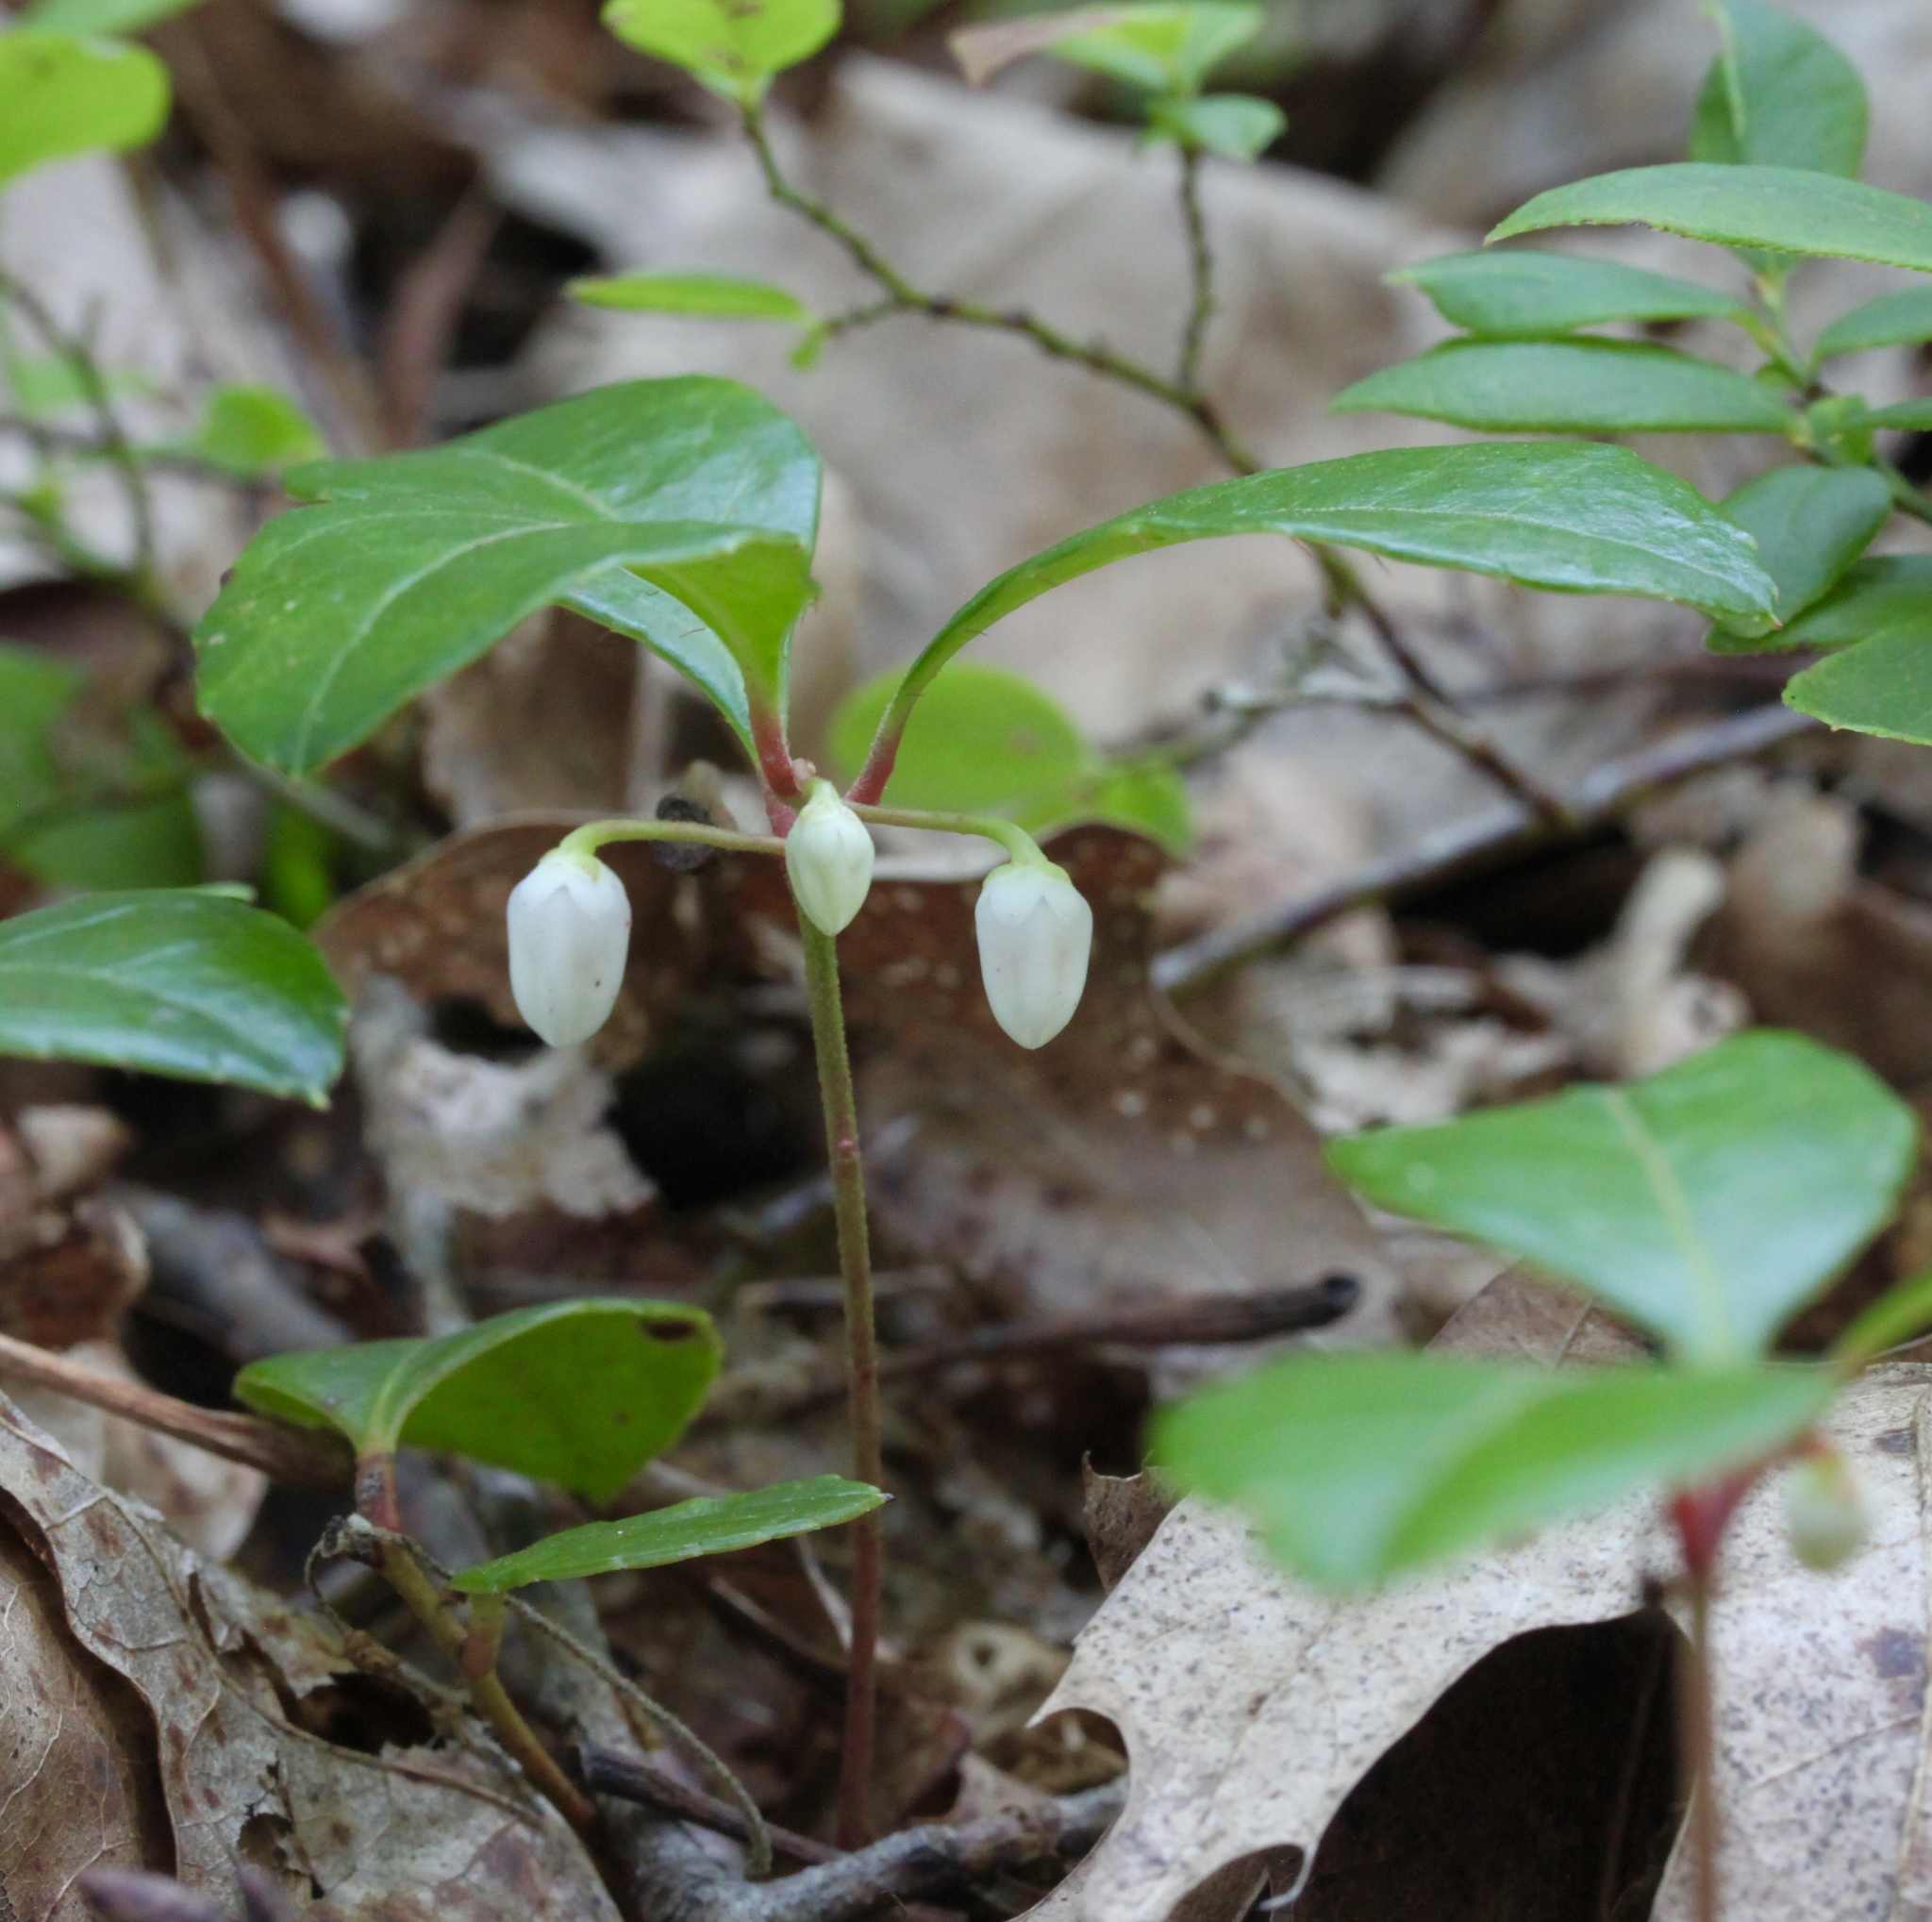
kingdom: Plantae
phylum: Tracheophyta
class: Magnoliopsida
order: Ericales
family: Ericaceae
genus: Gaultheria
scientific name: Gaultheria procumbens
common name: Checkerberry
